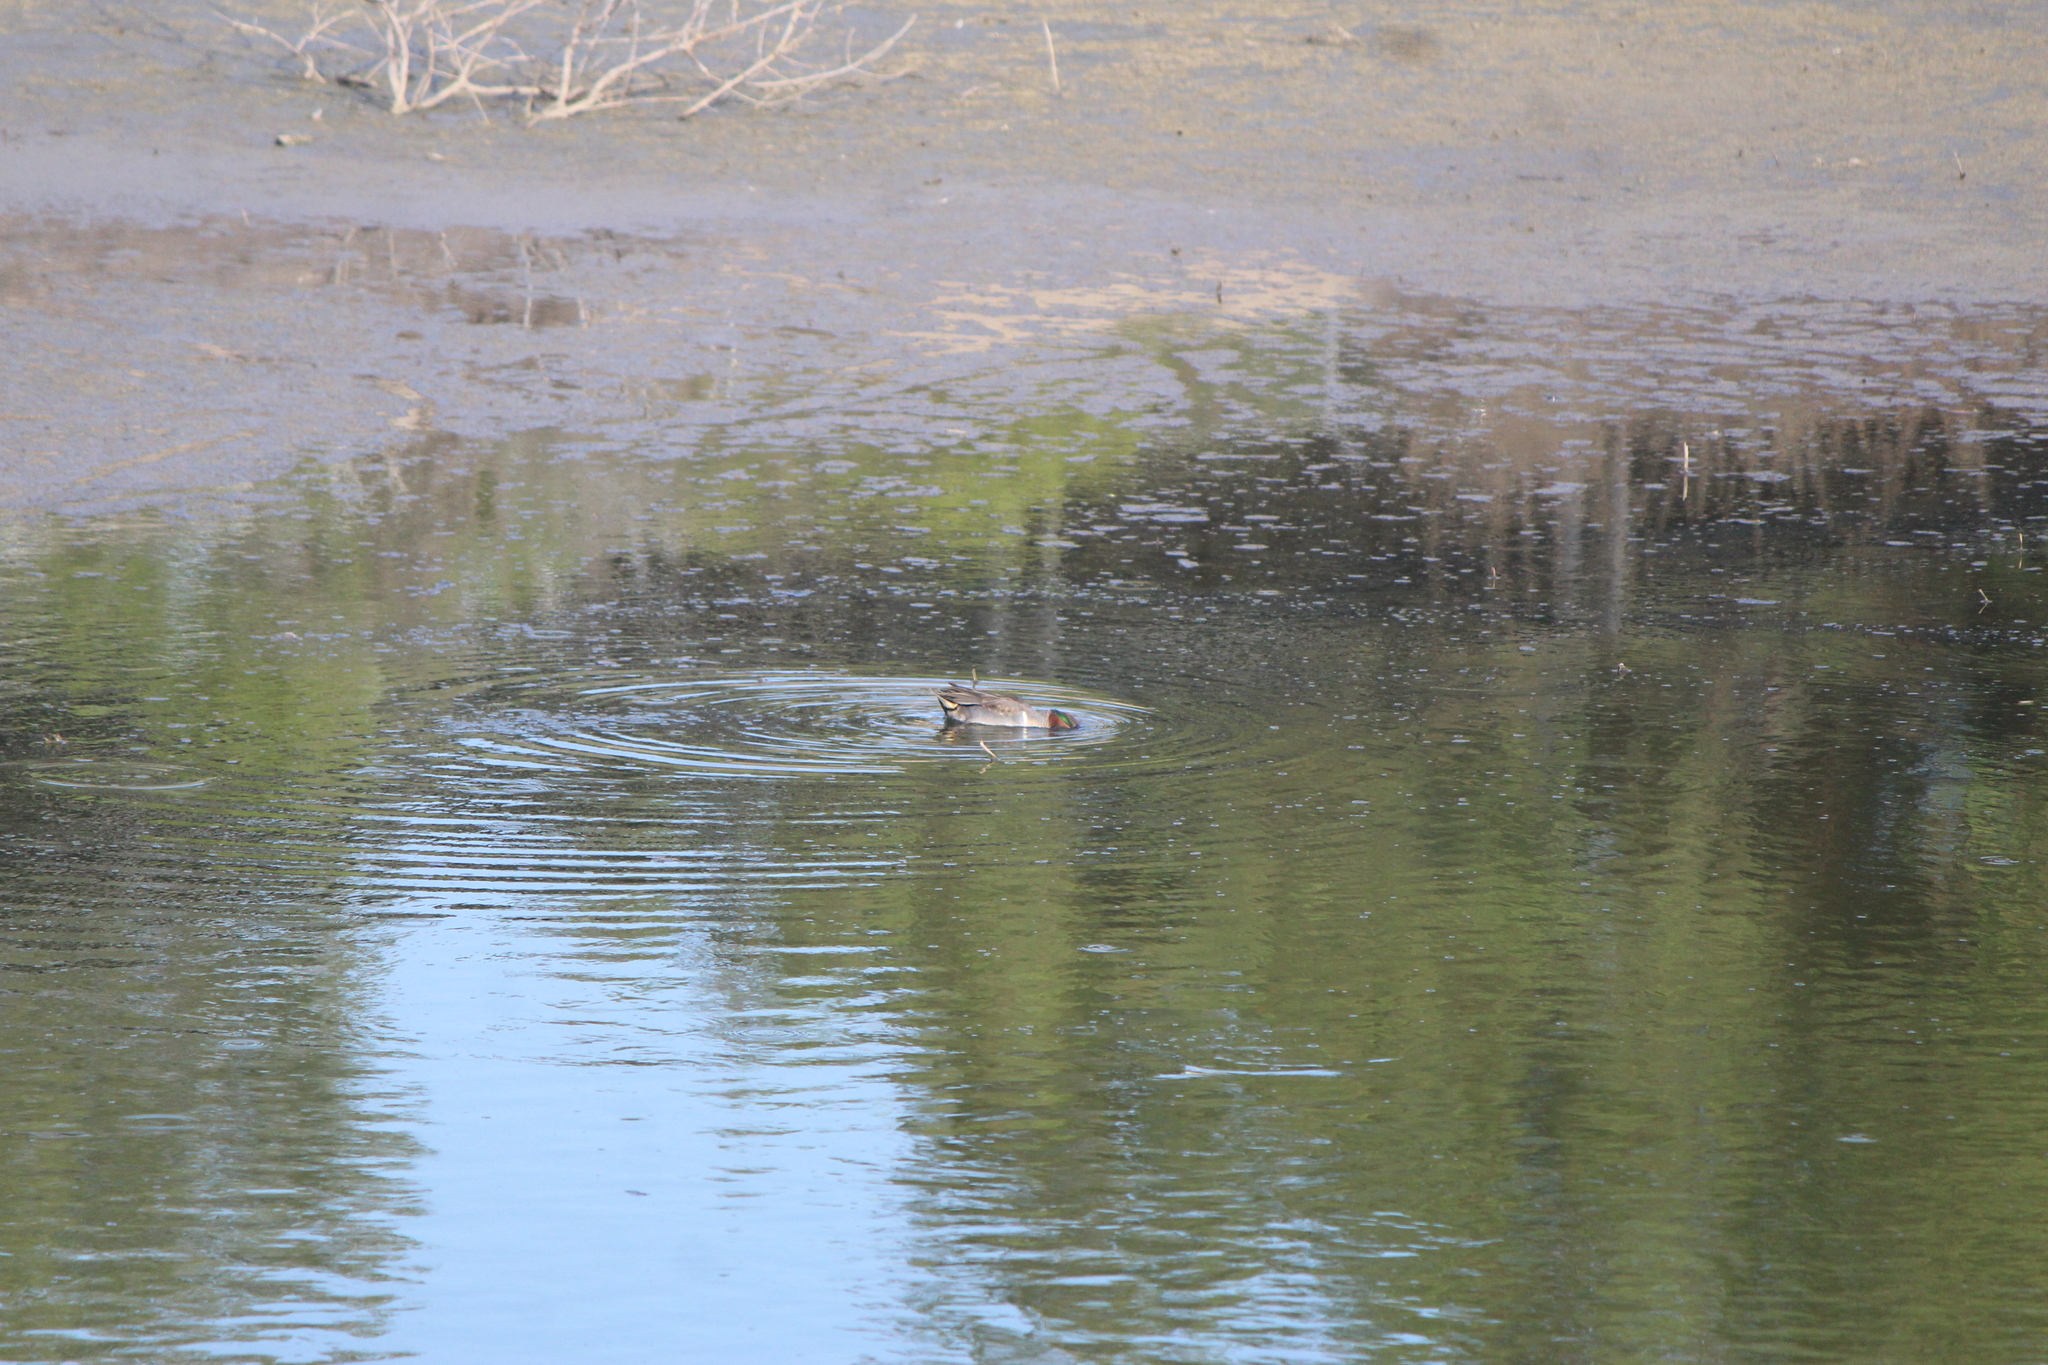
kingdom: Animalia
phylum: Chordata
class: Aves
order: Anseriformes
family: Anatidae
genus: Anas
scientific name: Anas crecca
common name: Eurasian teal
